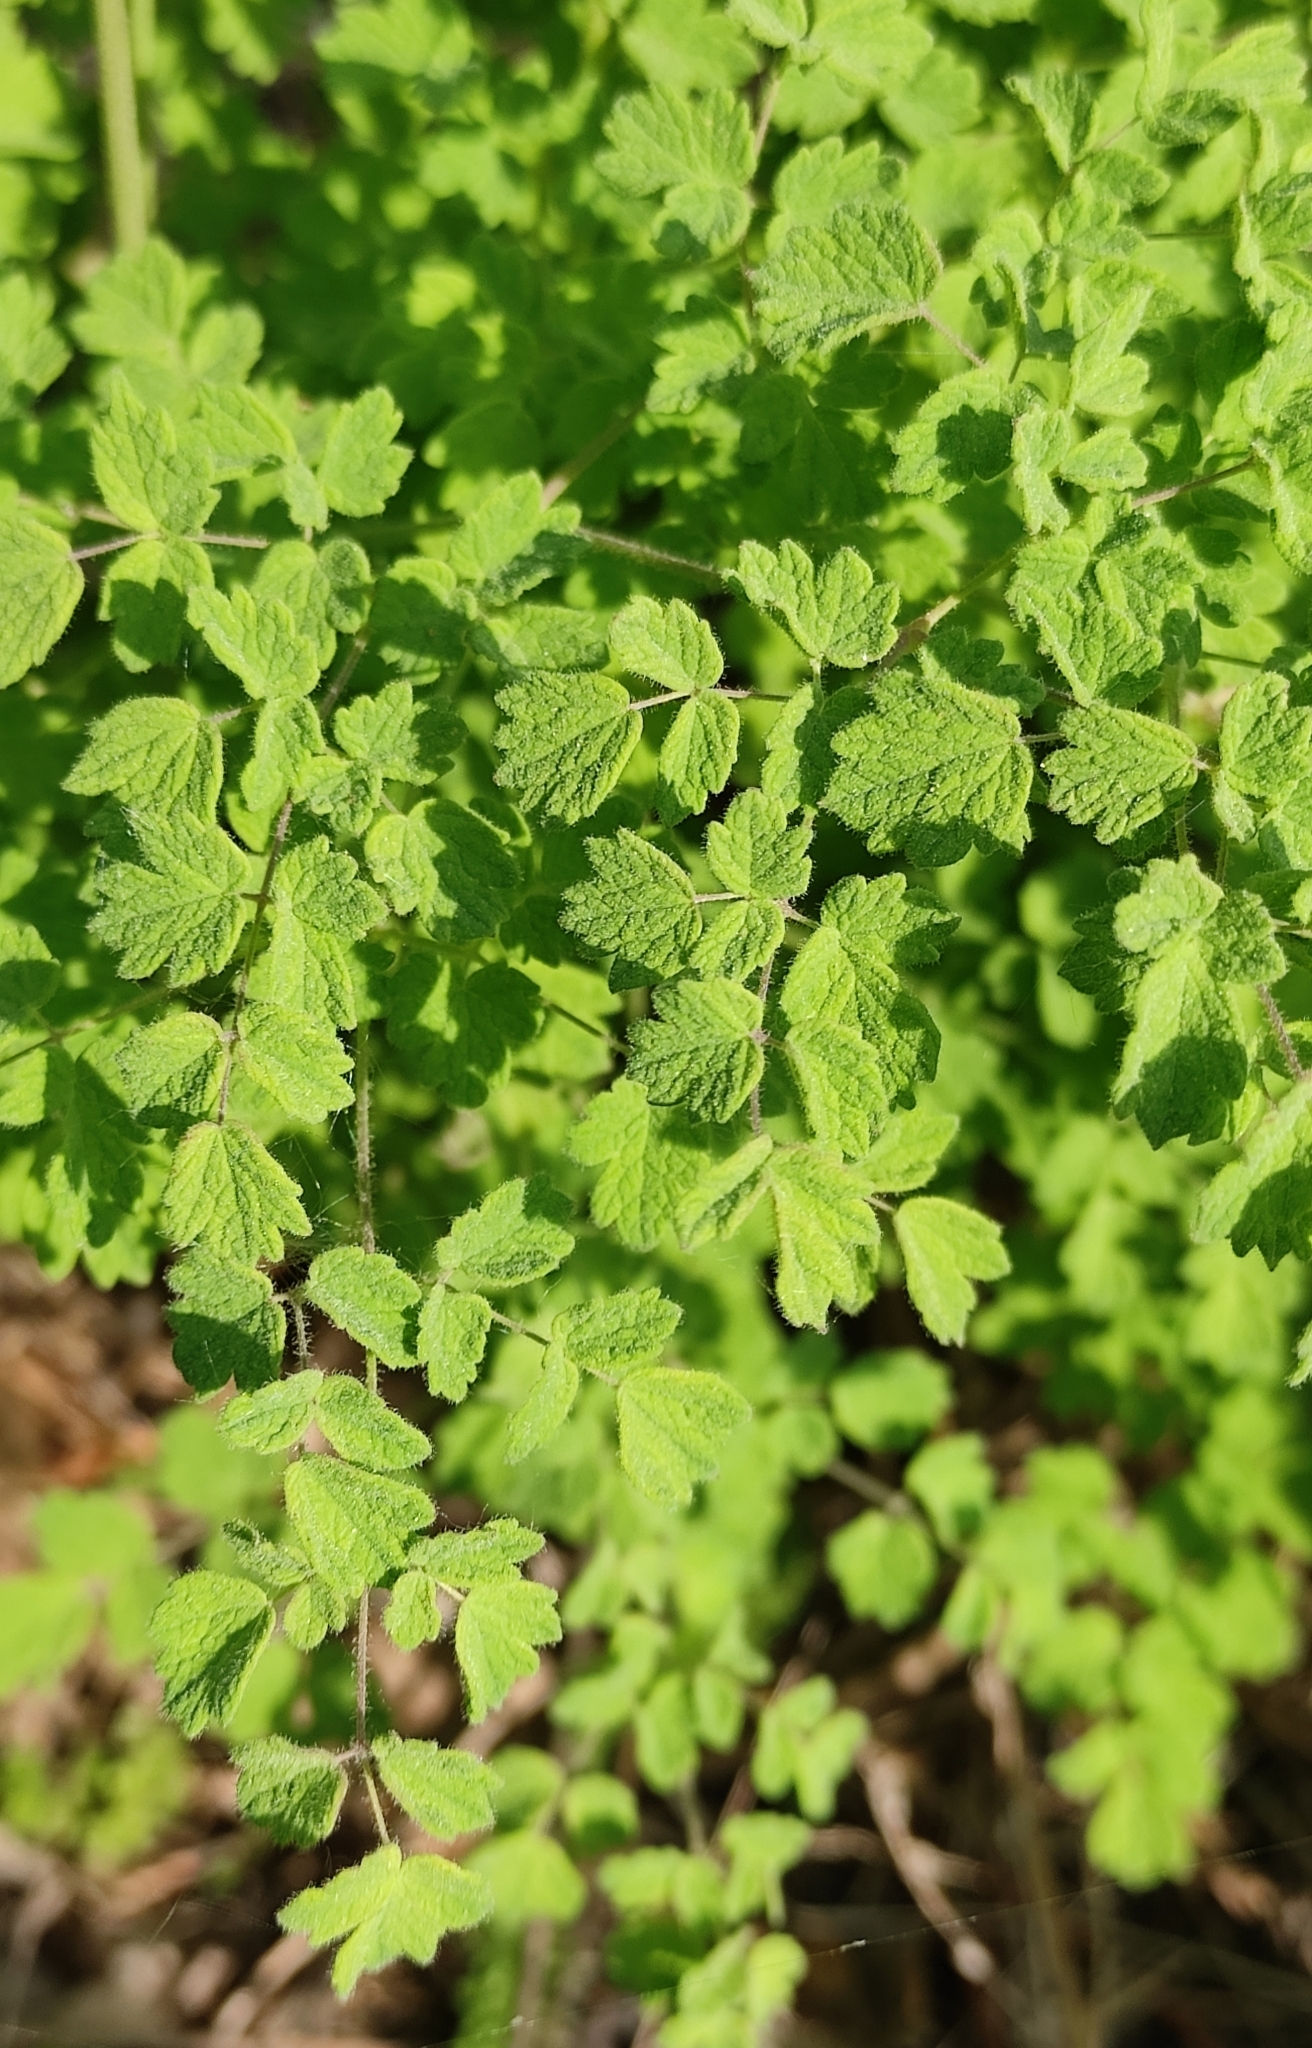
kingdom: Plantae
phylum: Tracheophyta
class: Magnoliopsida
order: Ranunculales
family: Ranunculaceae
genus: Thalictrum
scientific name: Thalictrum foetidum
